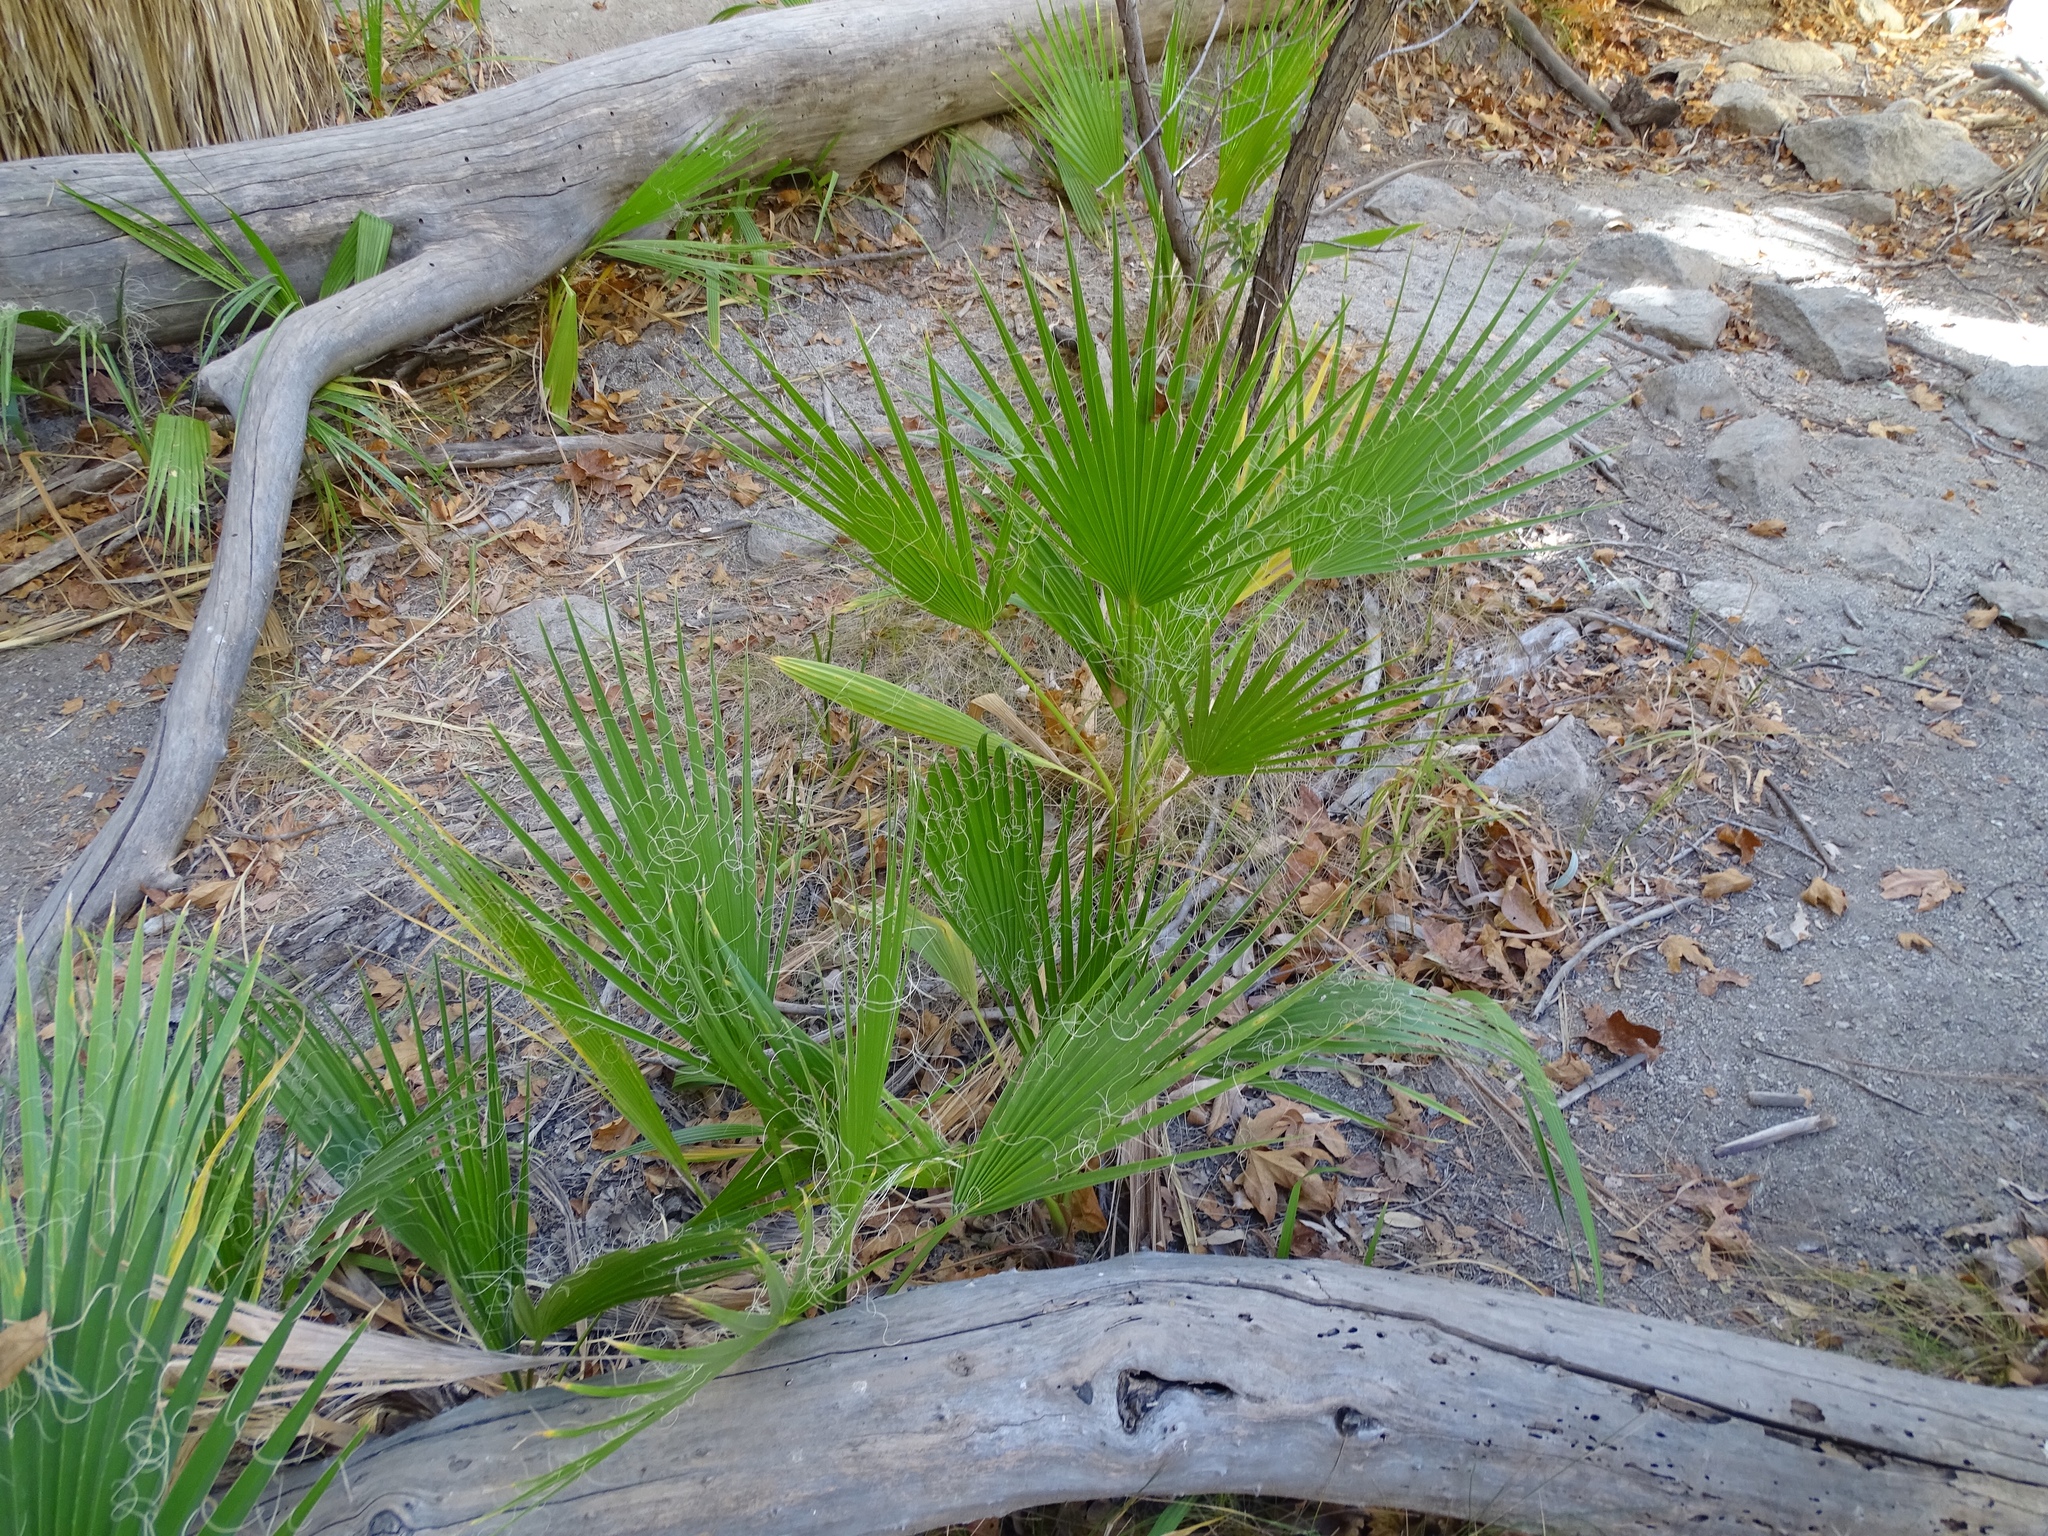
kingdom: Plantae
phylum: Tracheophyta
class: Liliopsida
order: Arecales
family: Arecaceae
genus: Washingtonia
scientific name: Washingtonia filifera
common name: California fan palm
